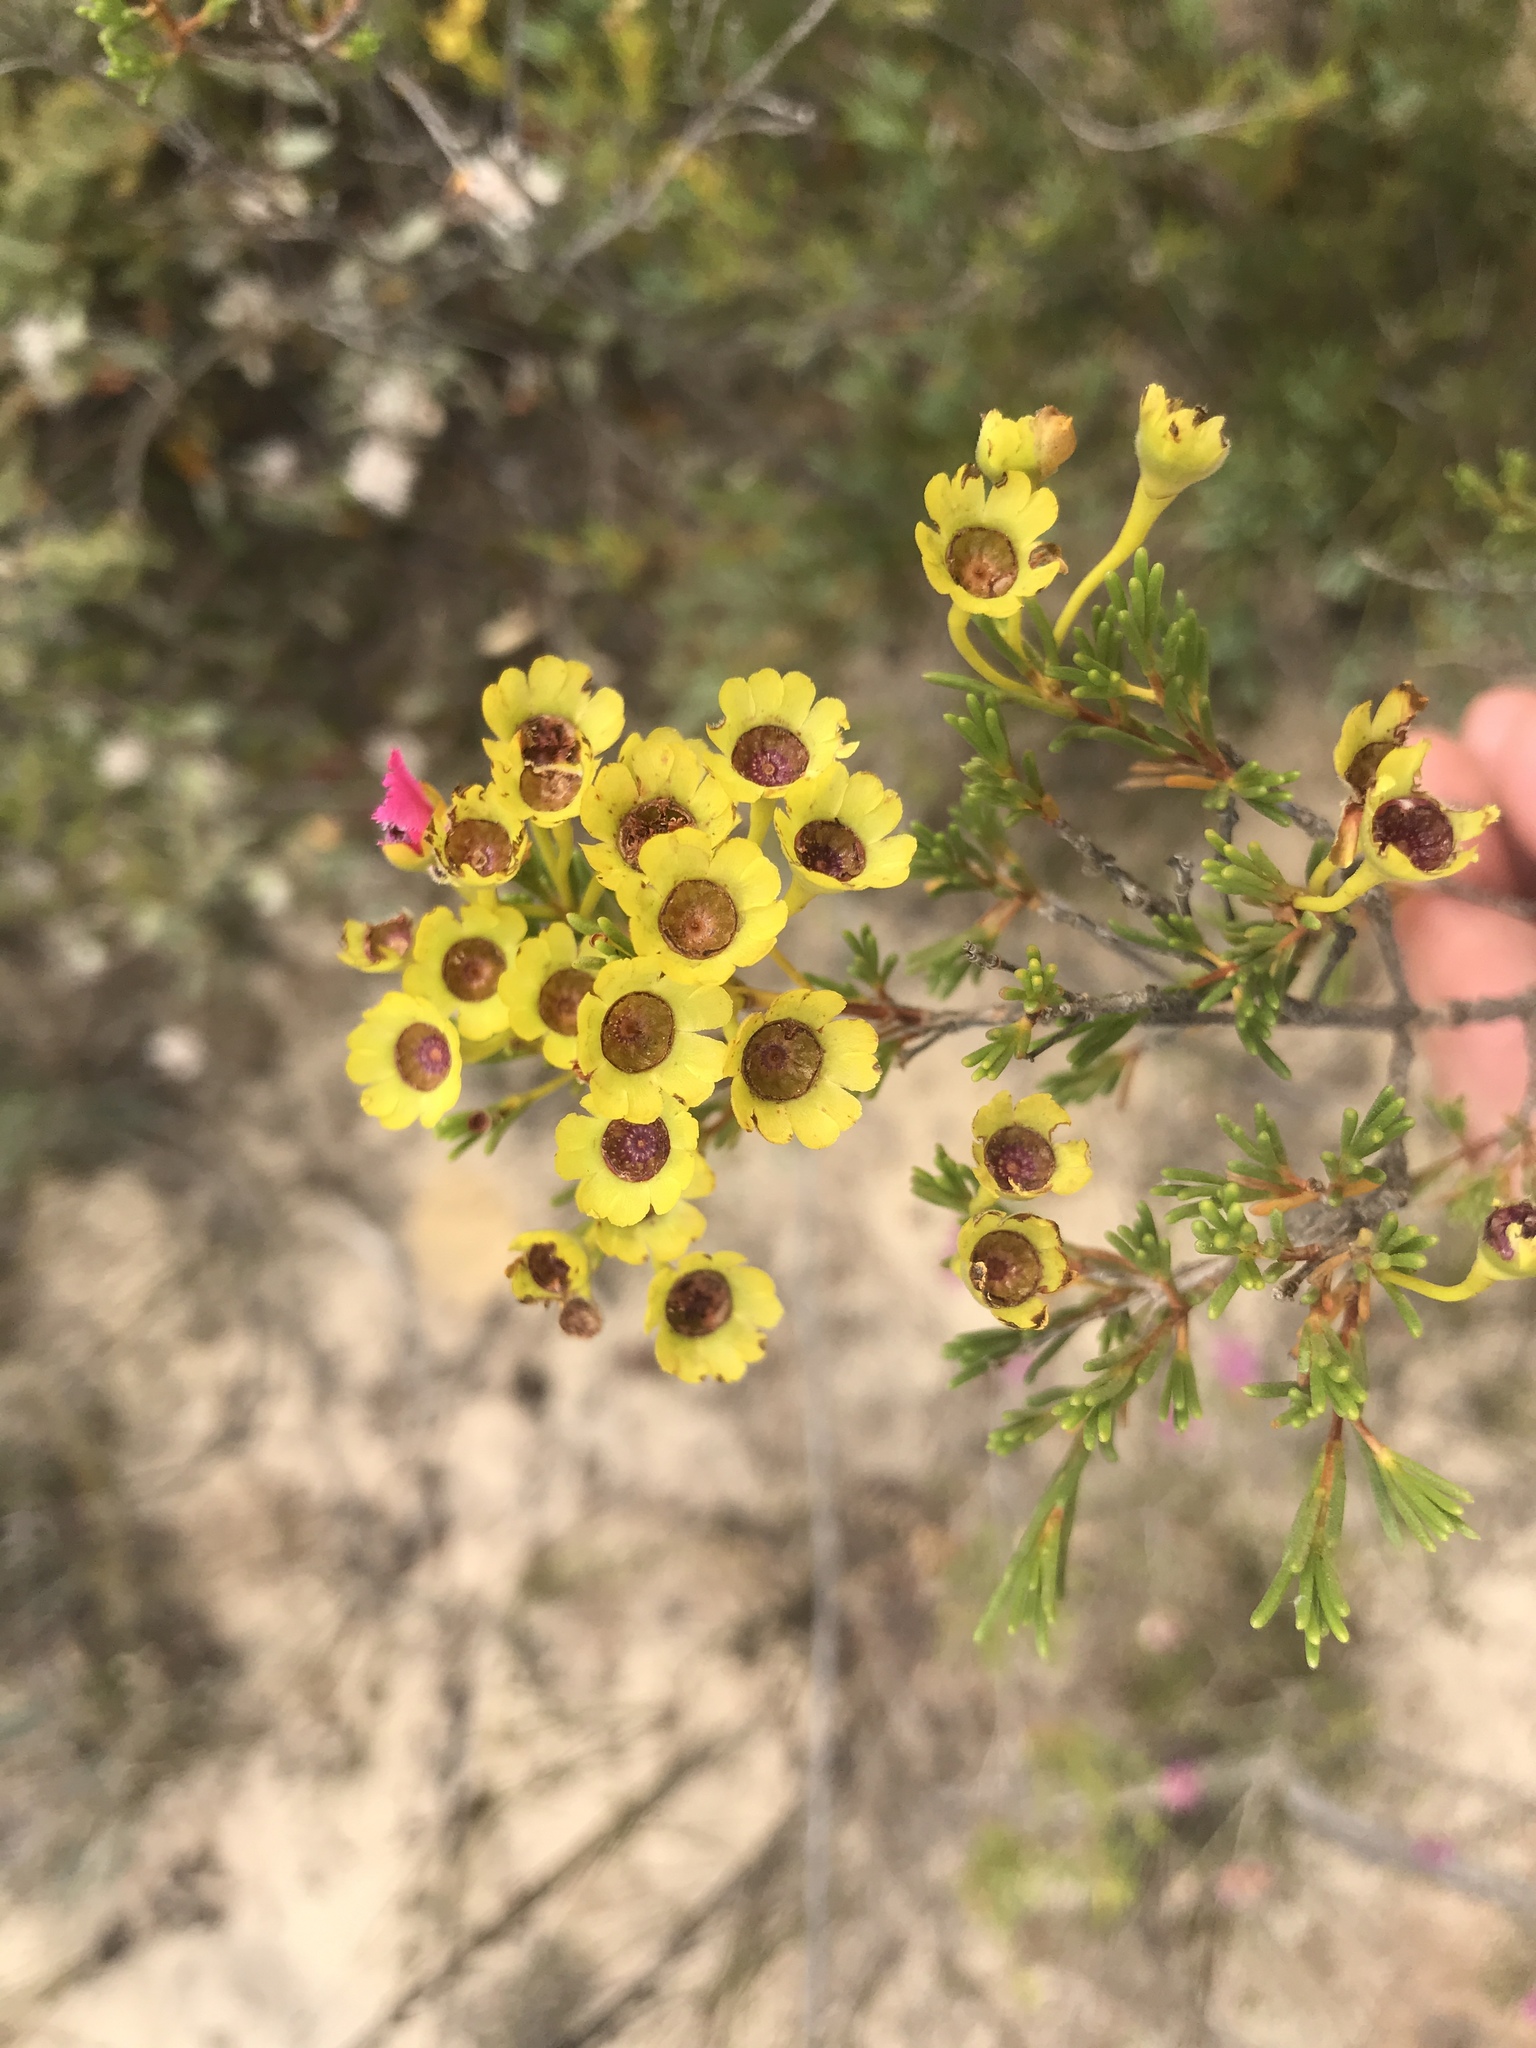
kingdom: Plantae
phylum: Tracheophyta
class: Magnoliopsida
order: Myrtales
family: Myrtaceae
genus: Pileanthus
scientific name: Pileanthus filifolius
